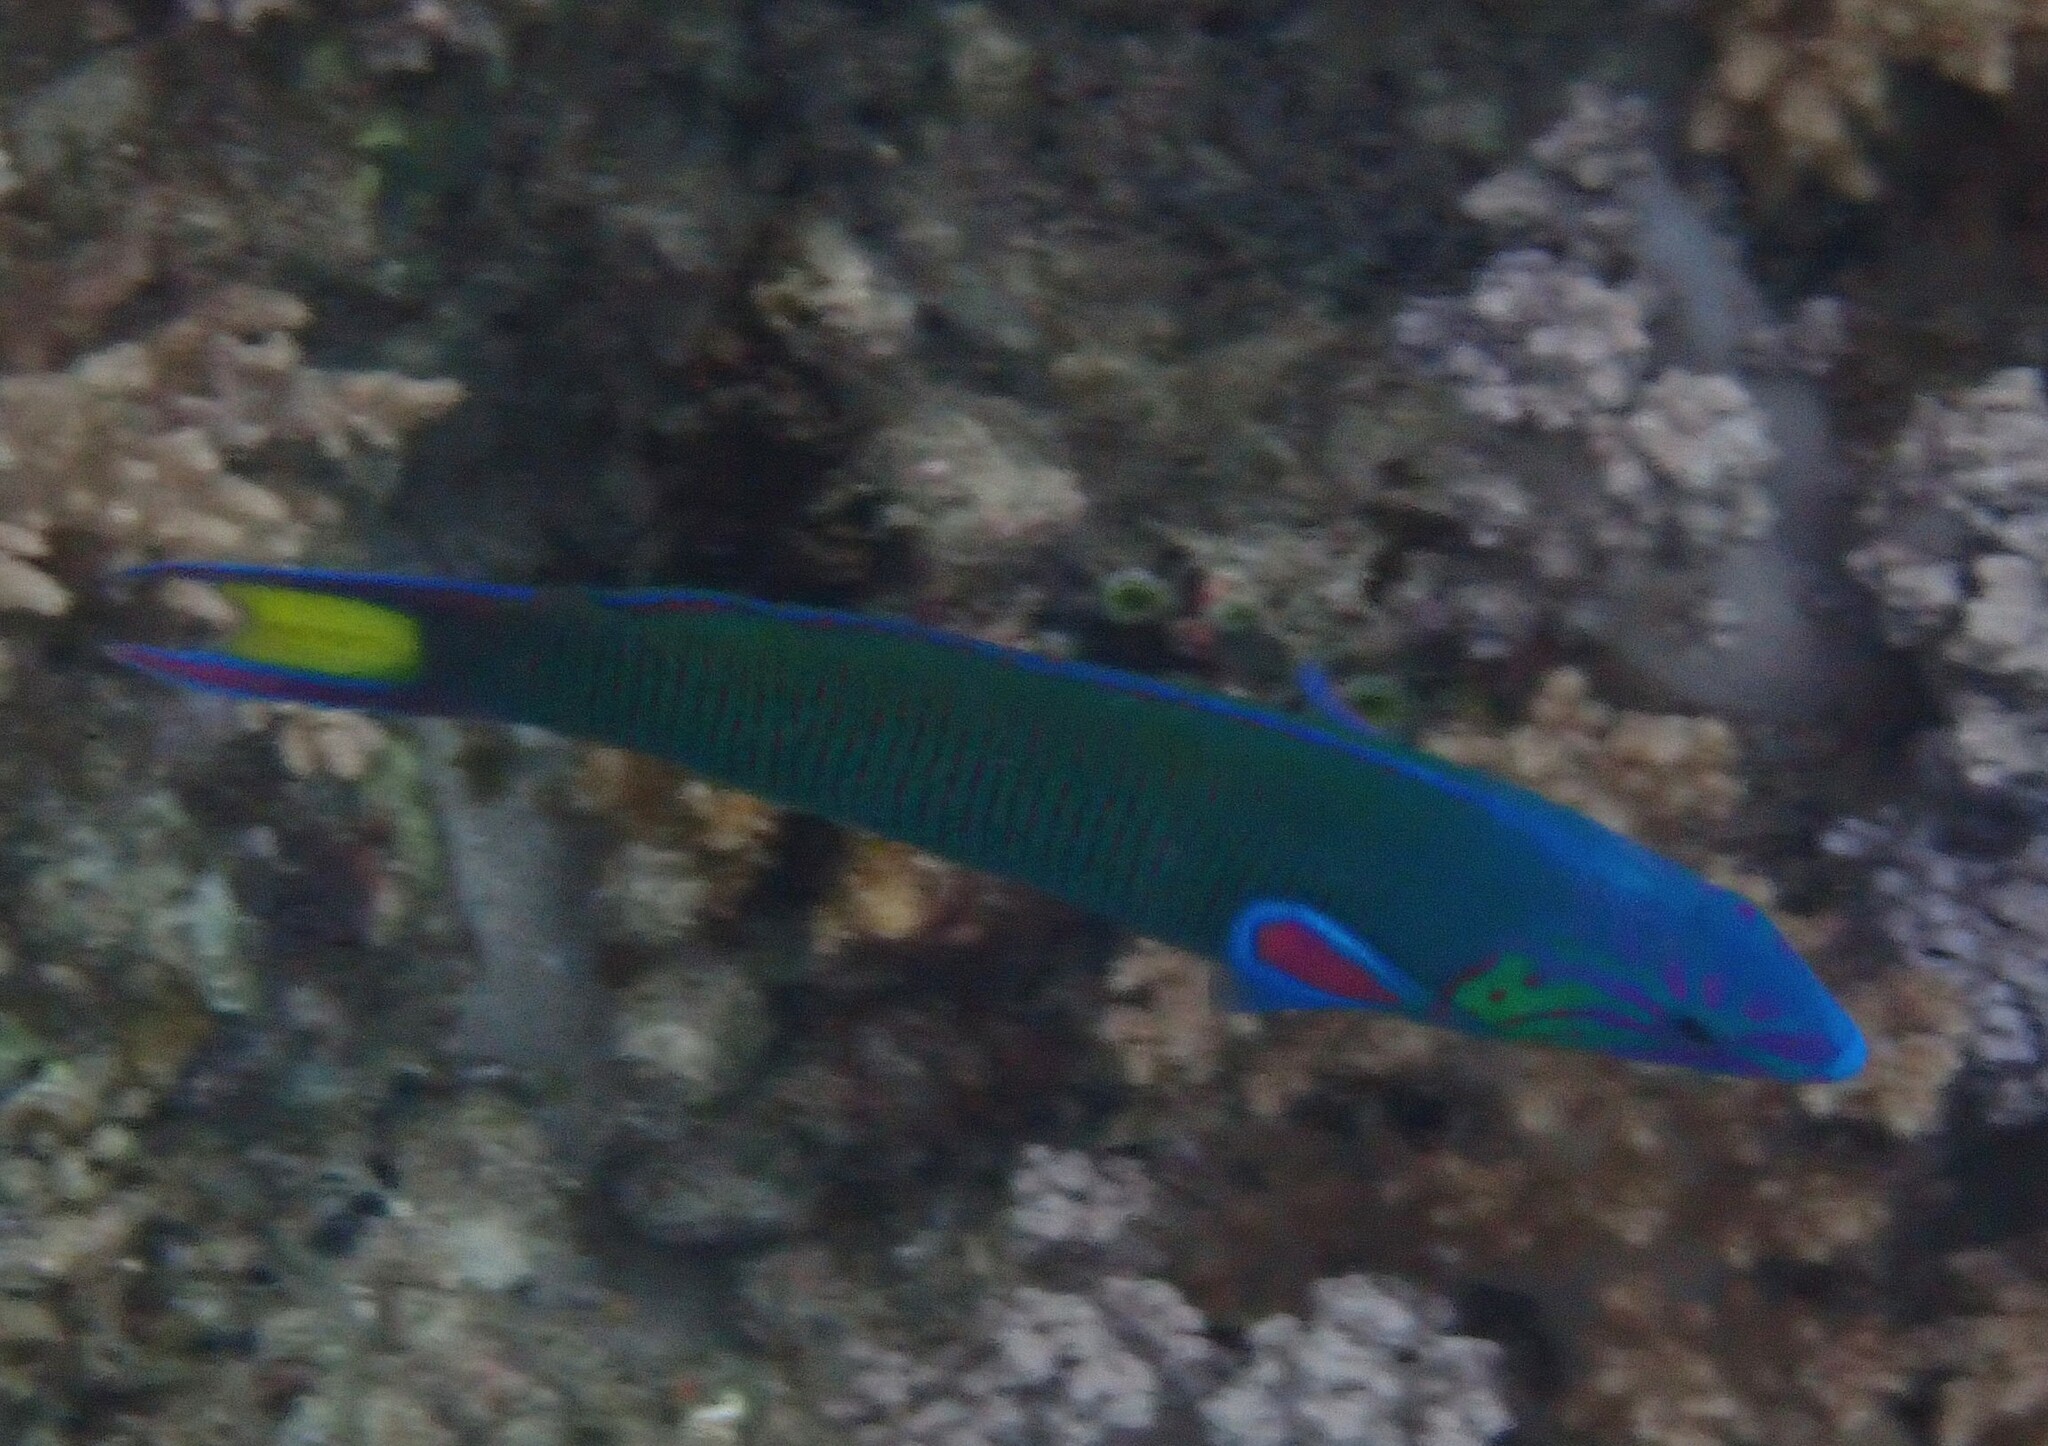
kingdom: Animalia
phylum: Chordata
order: Perciformes
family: Labridae
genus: Thalassoma
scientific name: Thalassoma lunare
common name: Blue wrasse
